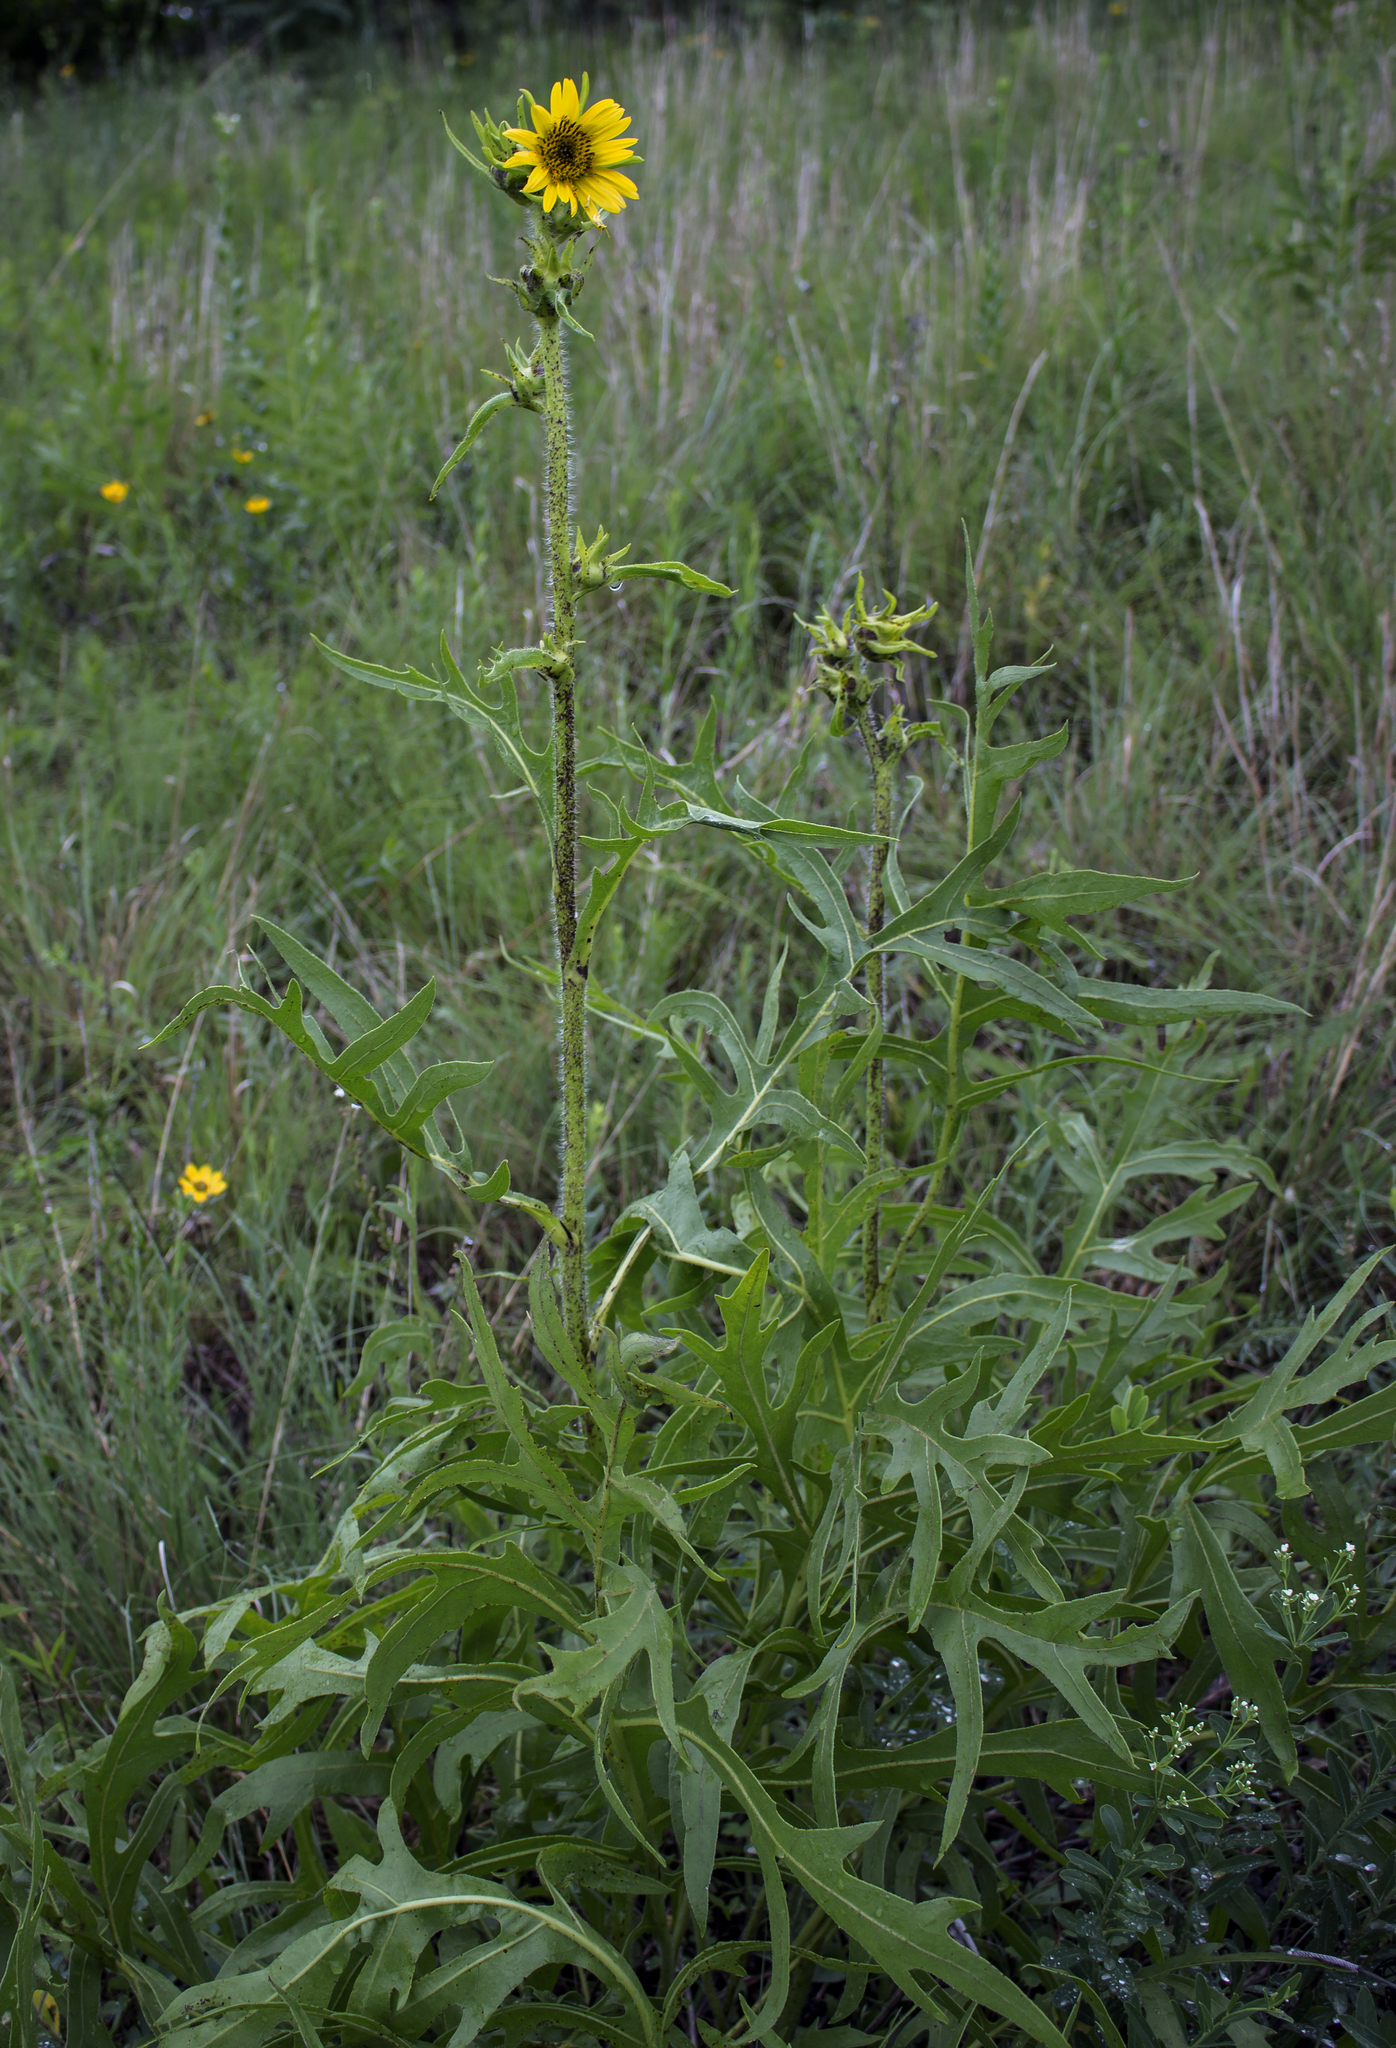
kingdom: Plantae
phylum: Tracheophyta
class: Magnoliopsida
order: Asterales
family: Asteraceae
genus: Silphium
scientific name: Silphium laciniatum
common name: Polarplant
